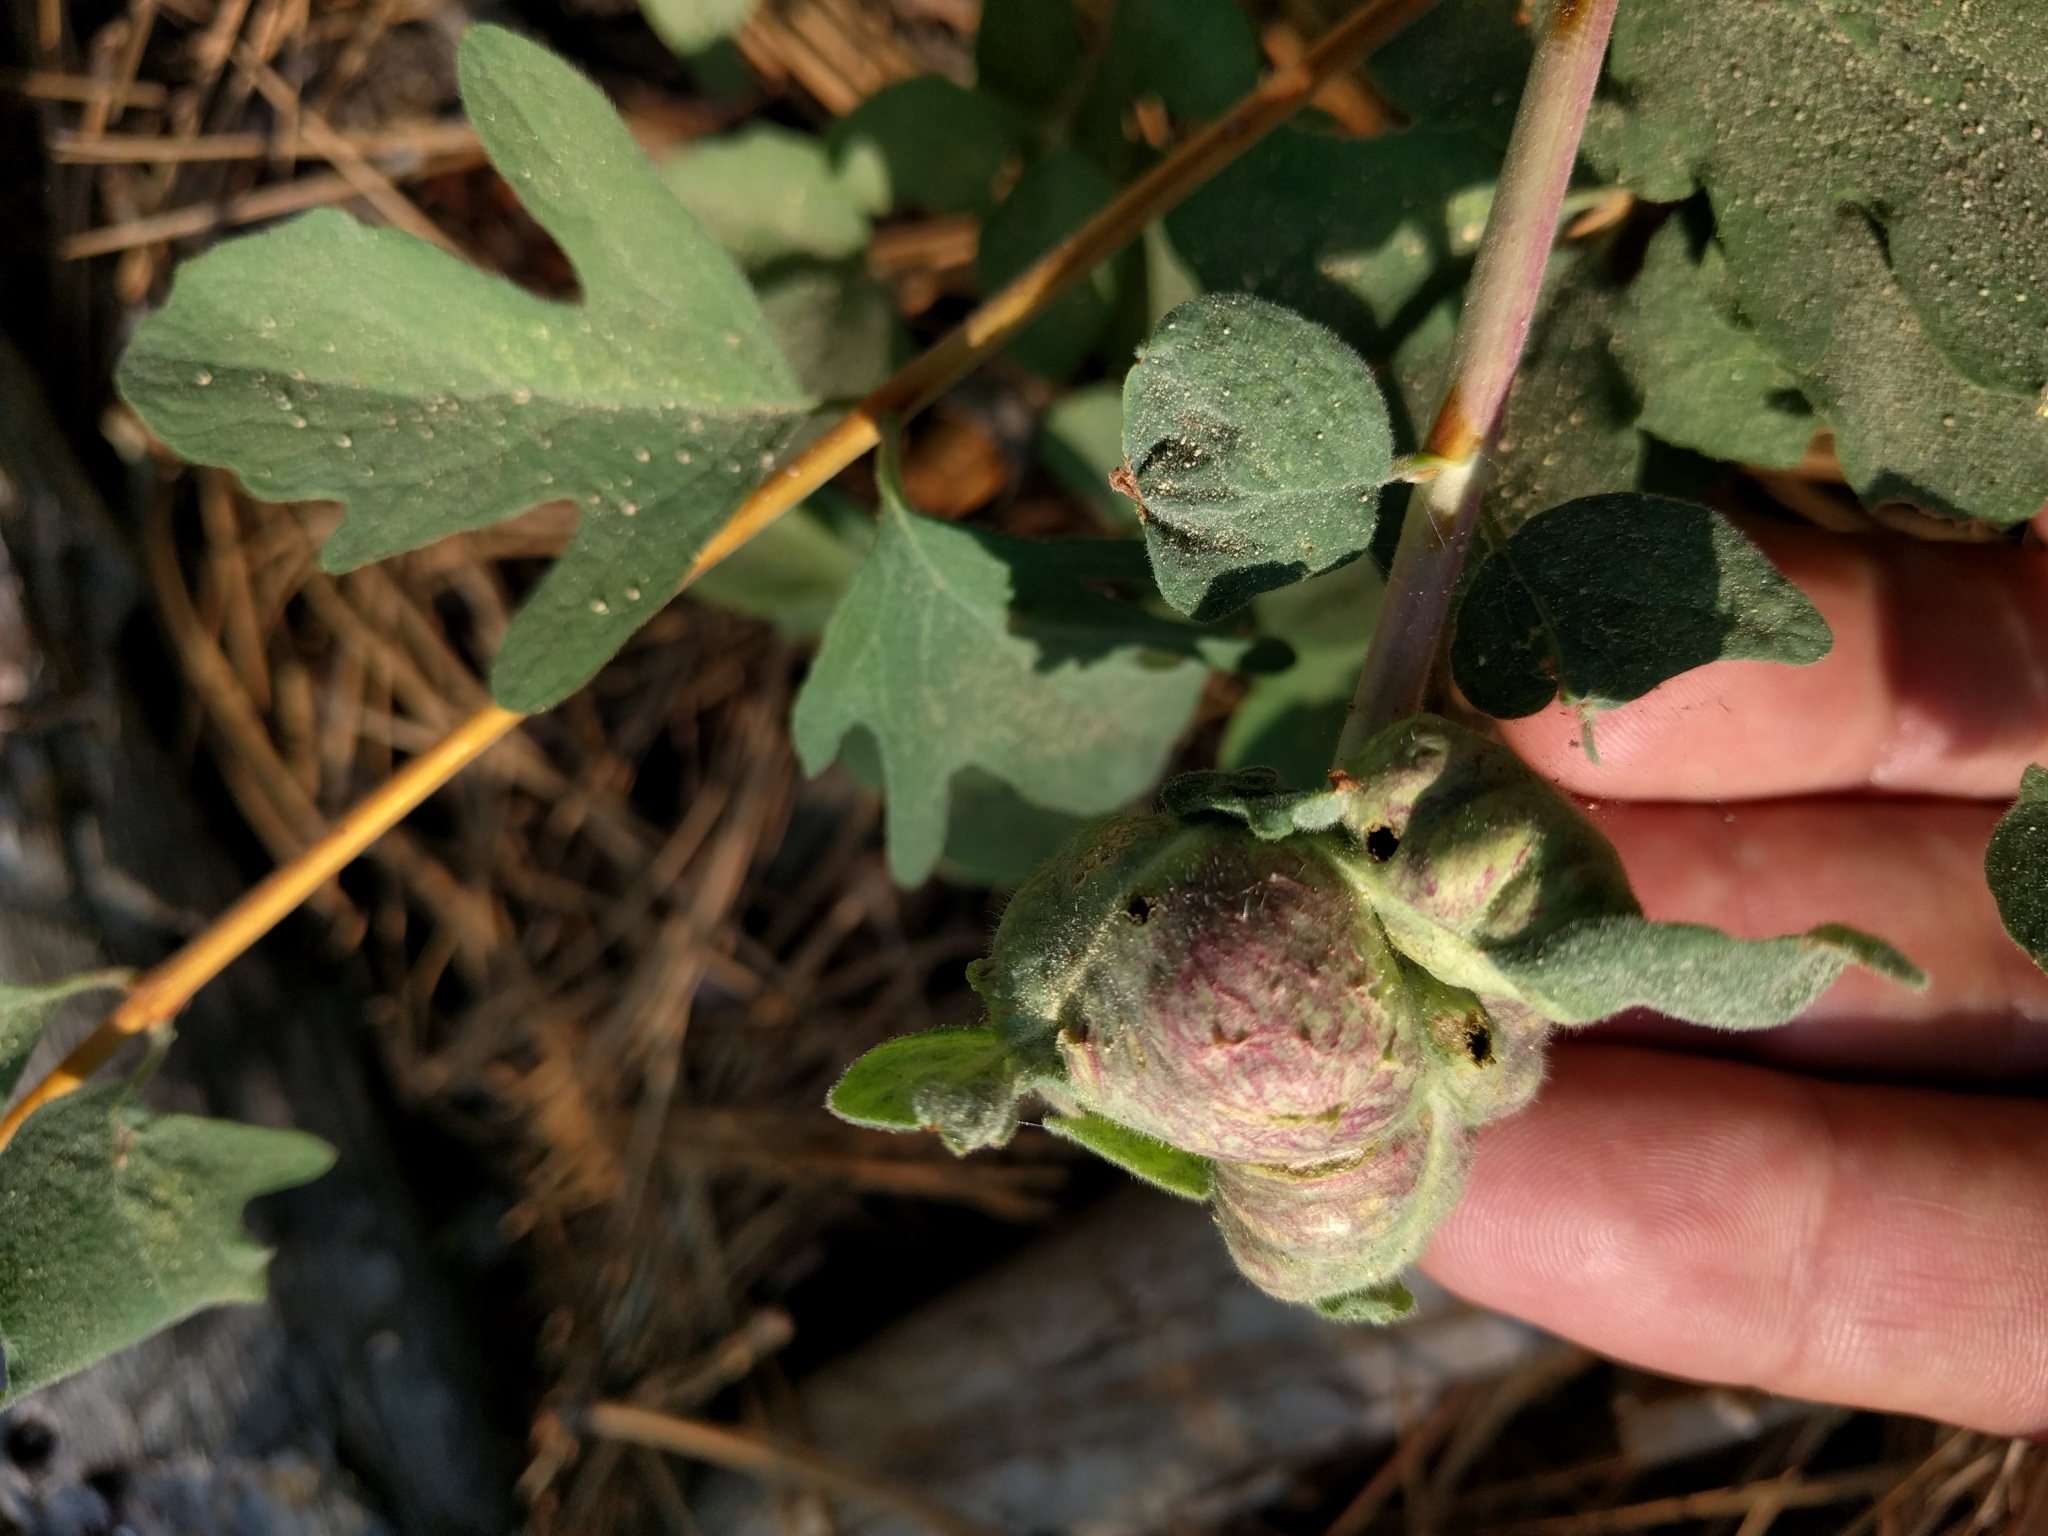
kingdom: Animalia
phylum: Arthropoda
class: Insecta
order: Hymenoptera
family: Tenthredinidae
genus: Blennogeneris
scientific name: Blennogeneris spissipes
